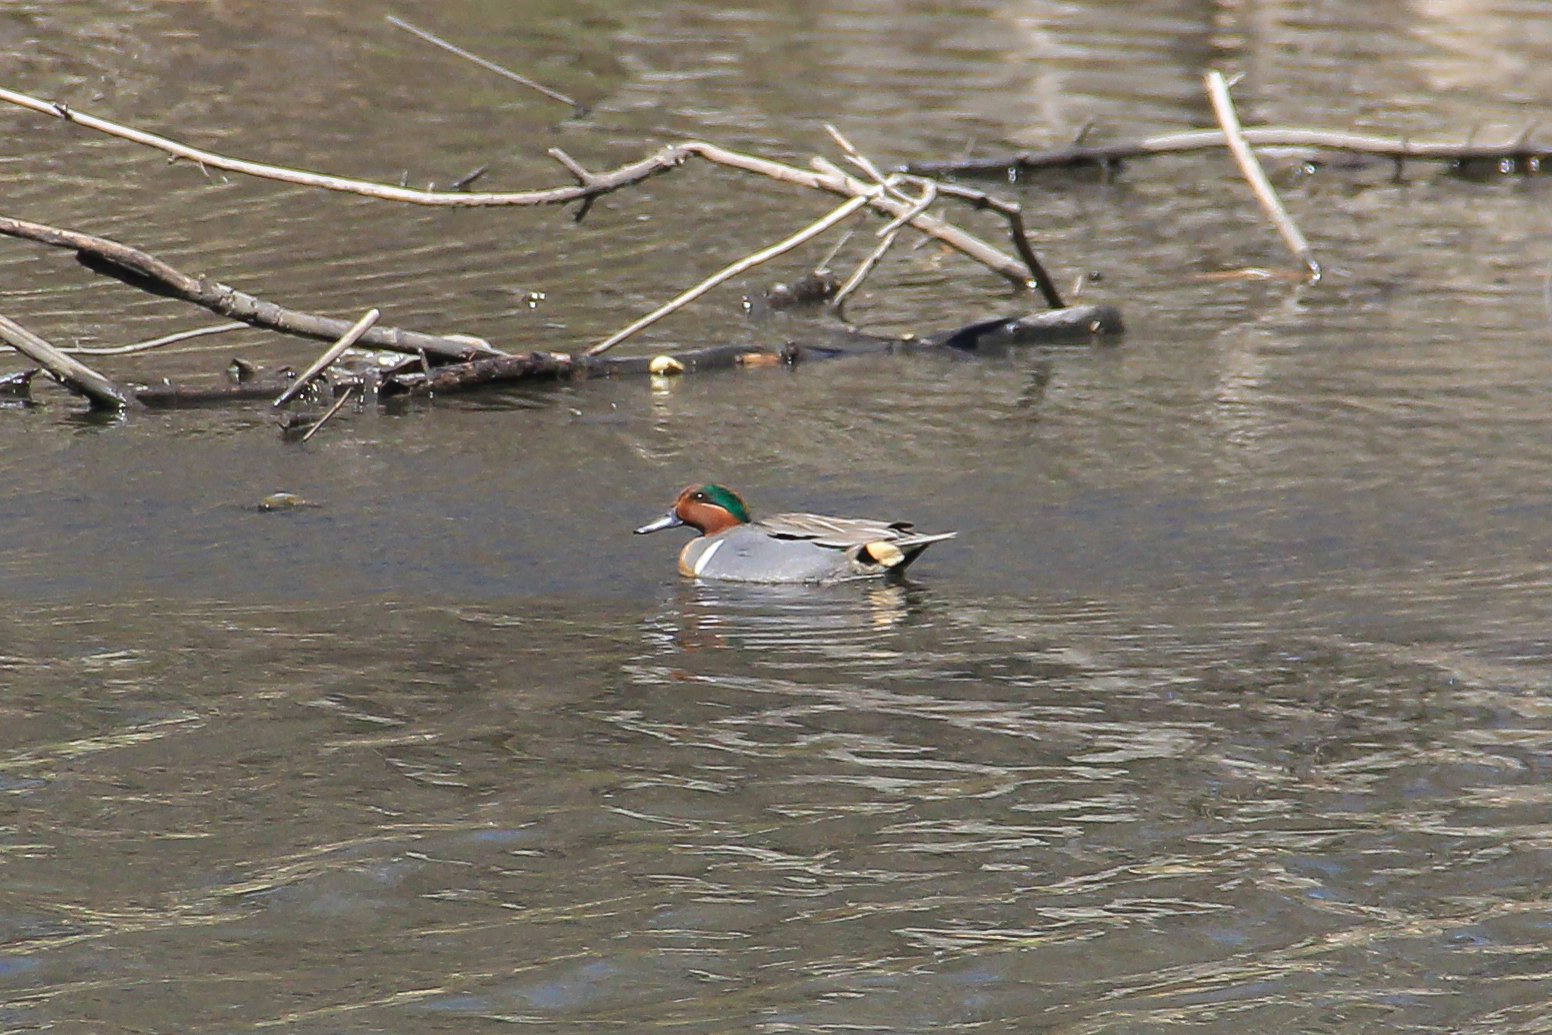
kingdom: Animalia
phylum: Chordata
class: Aves
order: Anseriformes
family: Anatidae
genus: Anas
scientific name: Anas crecca
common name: Eurasian teal
